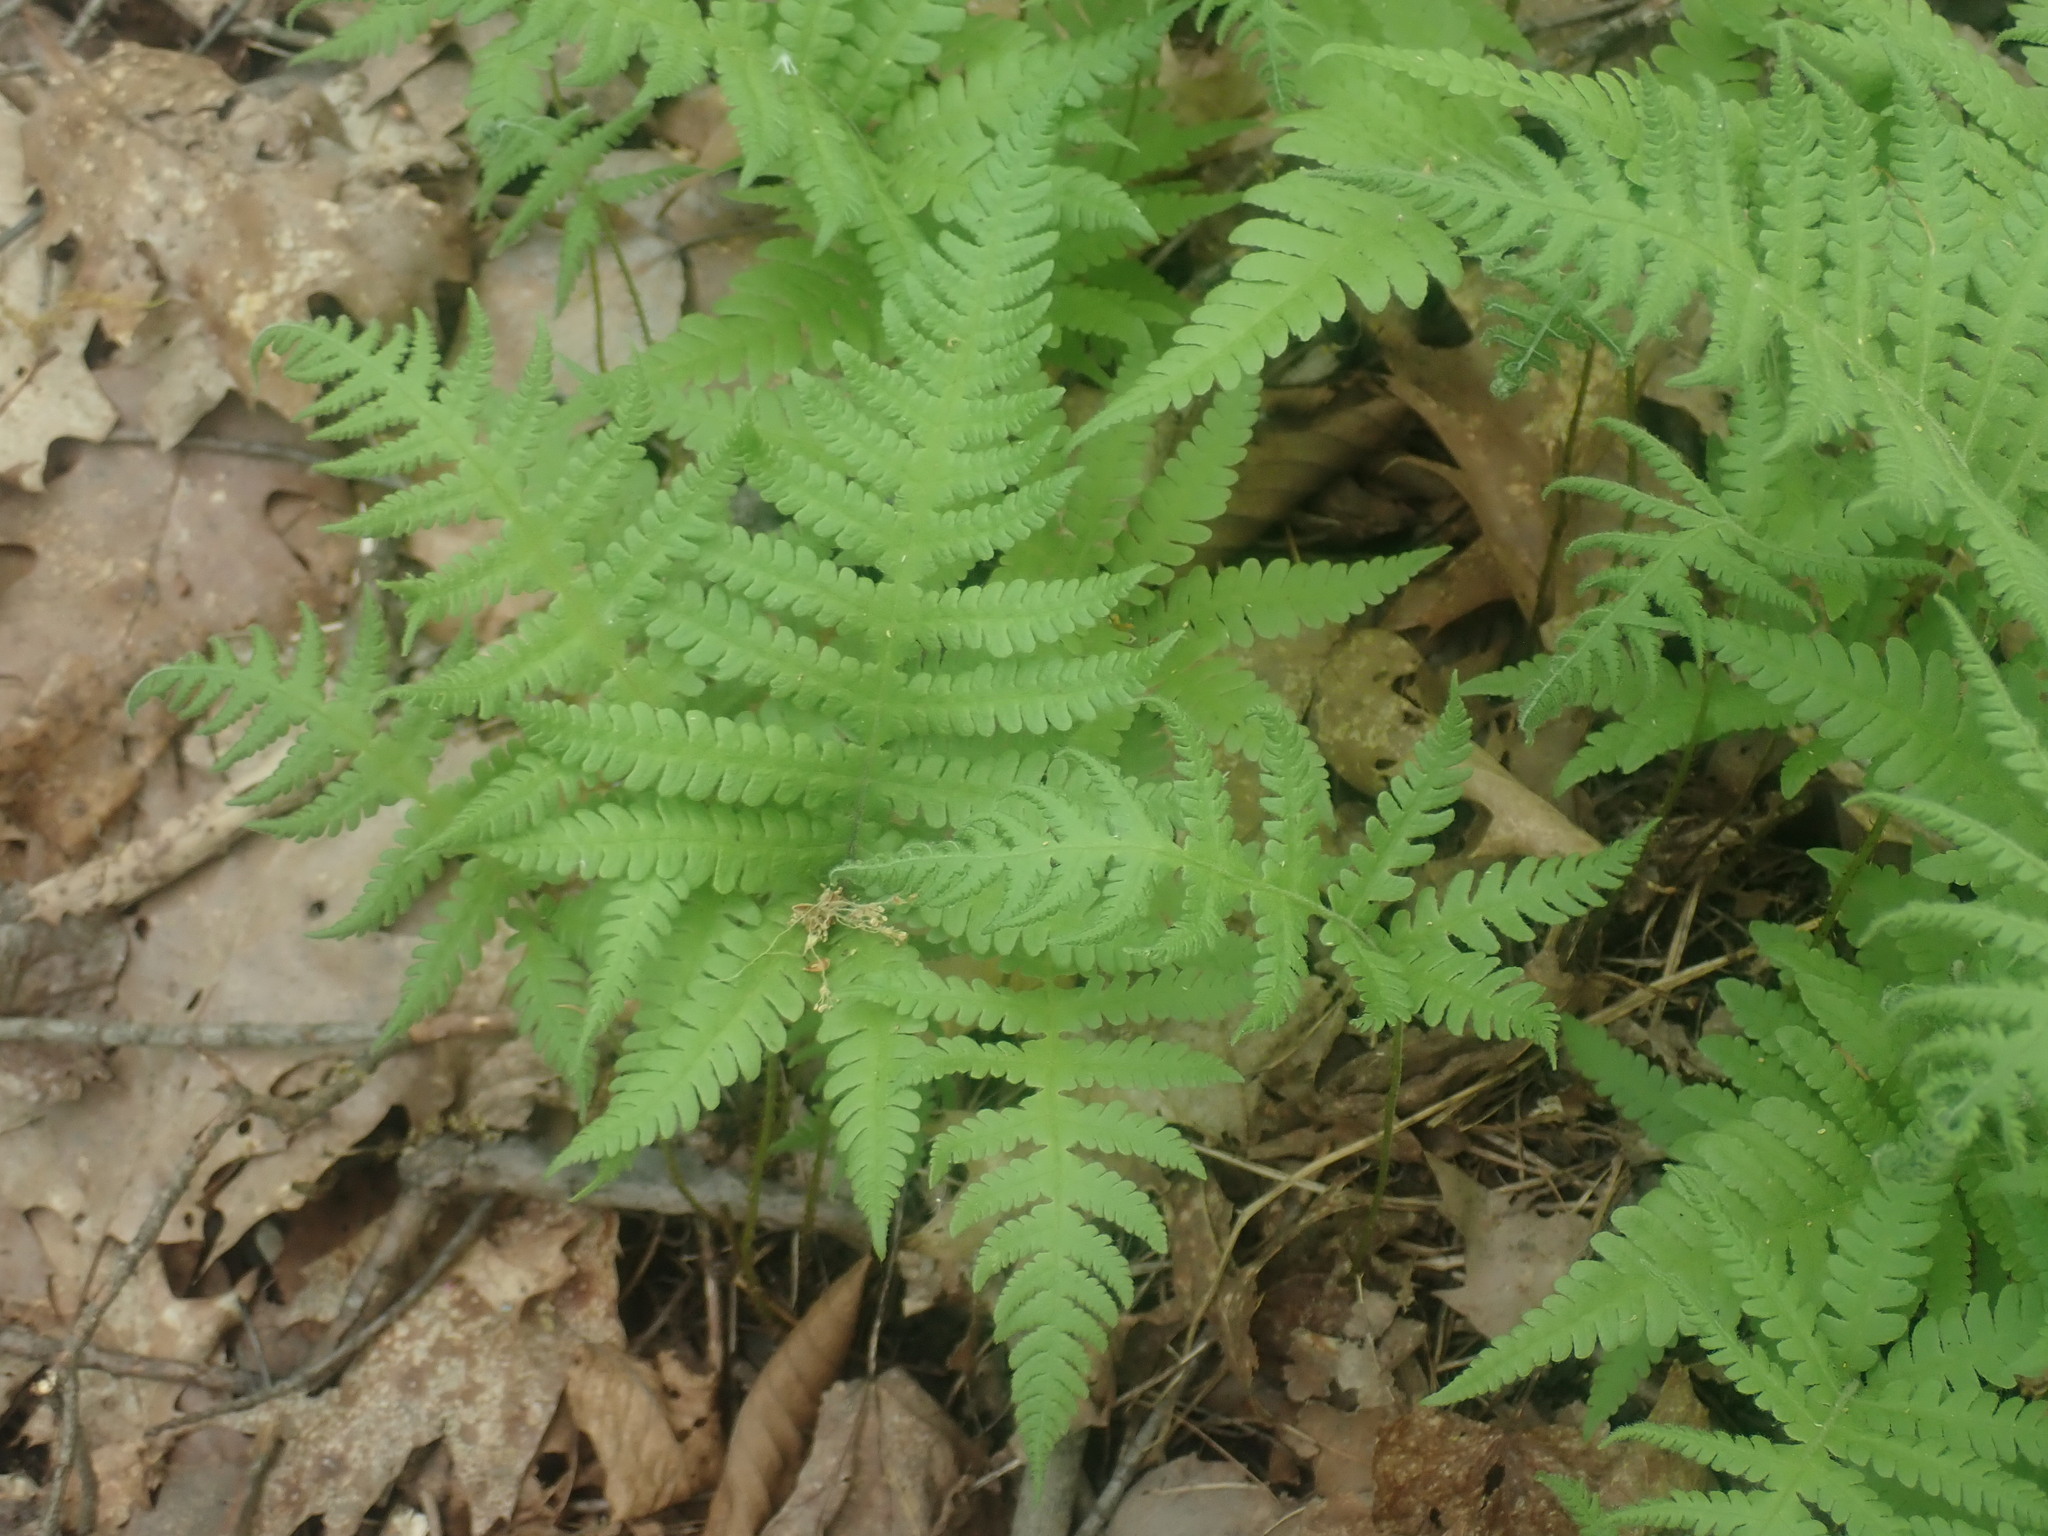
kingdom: Plantae
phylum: Tracheophyta
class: Polypodiopsida
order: Polypodiales
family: Thelypteridaceae
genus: Phegopteris
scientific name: Phegopteris connectilis
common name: Beech fern
